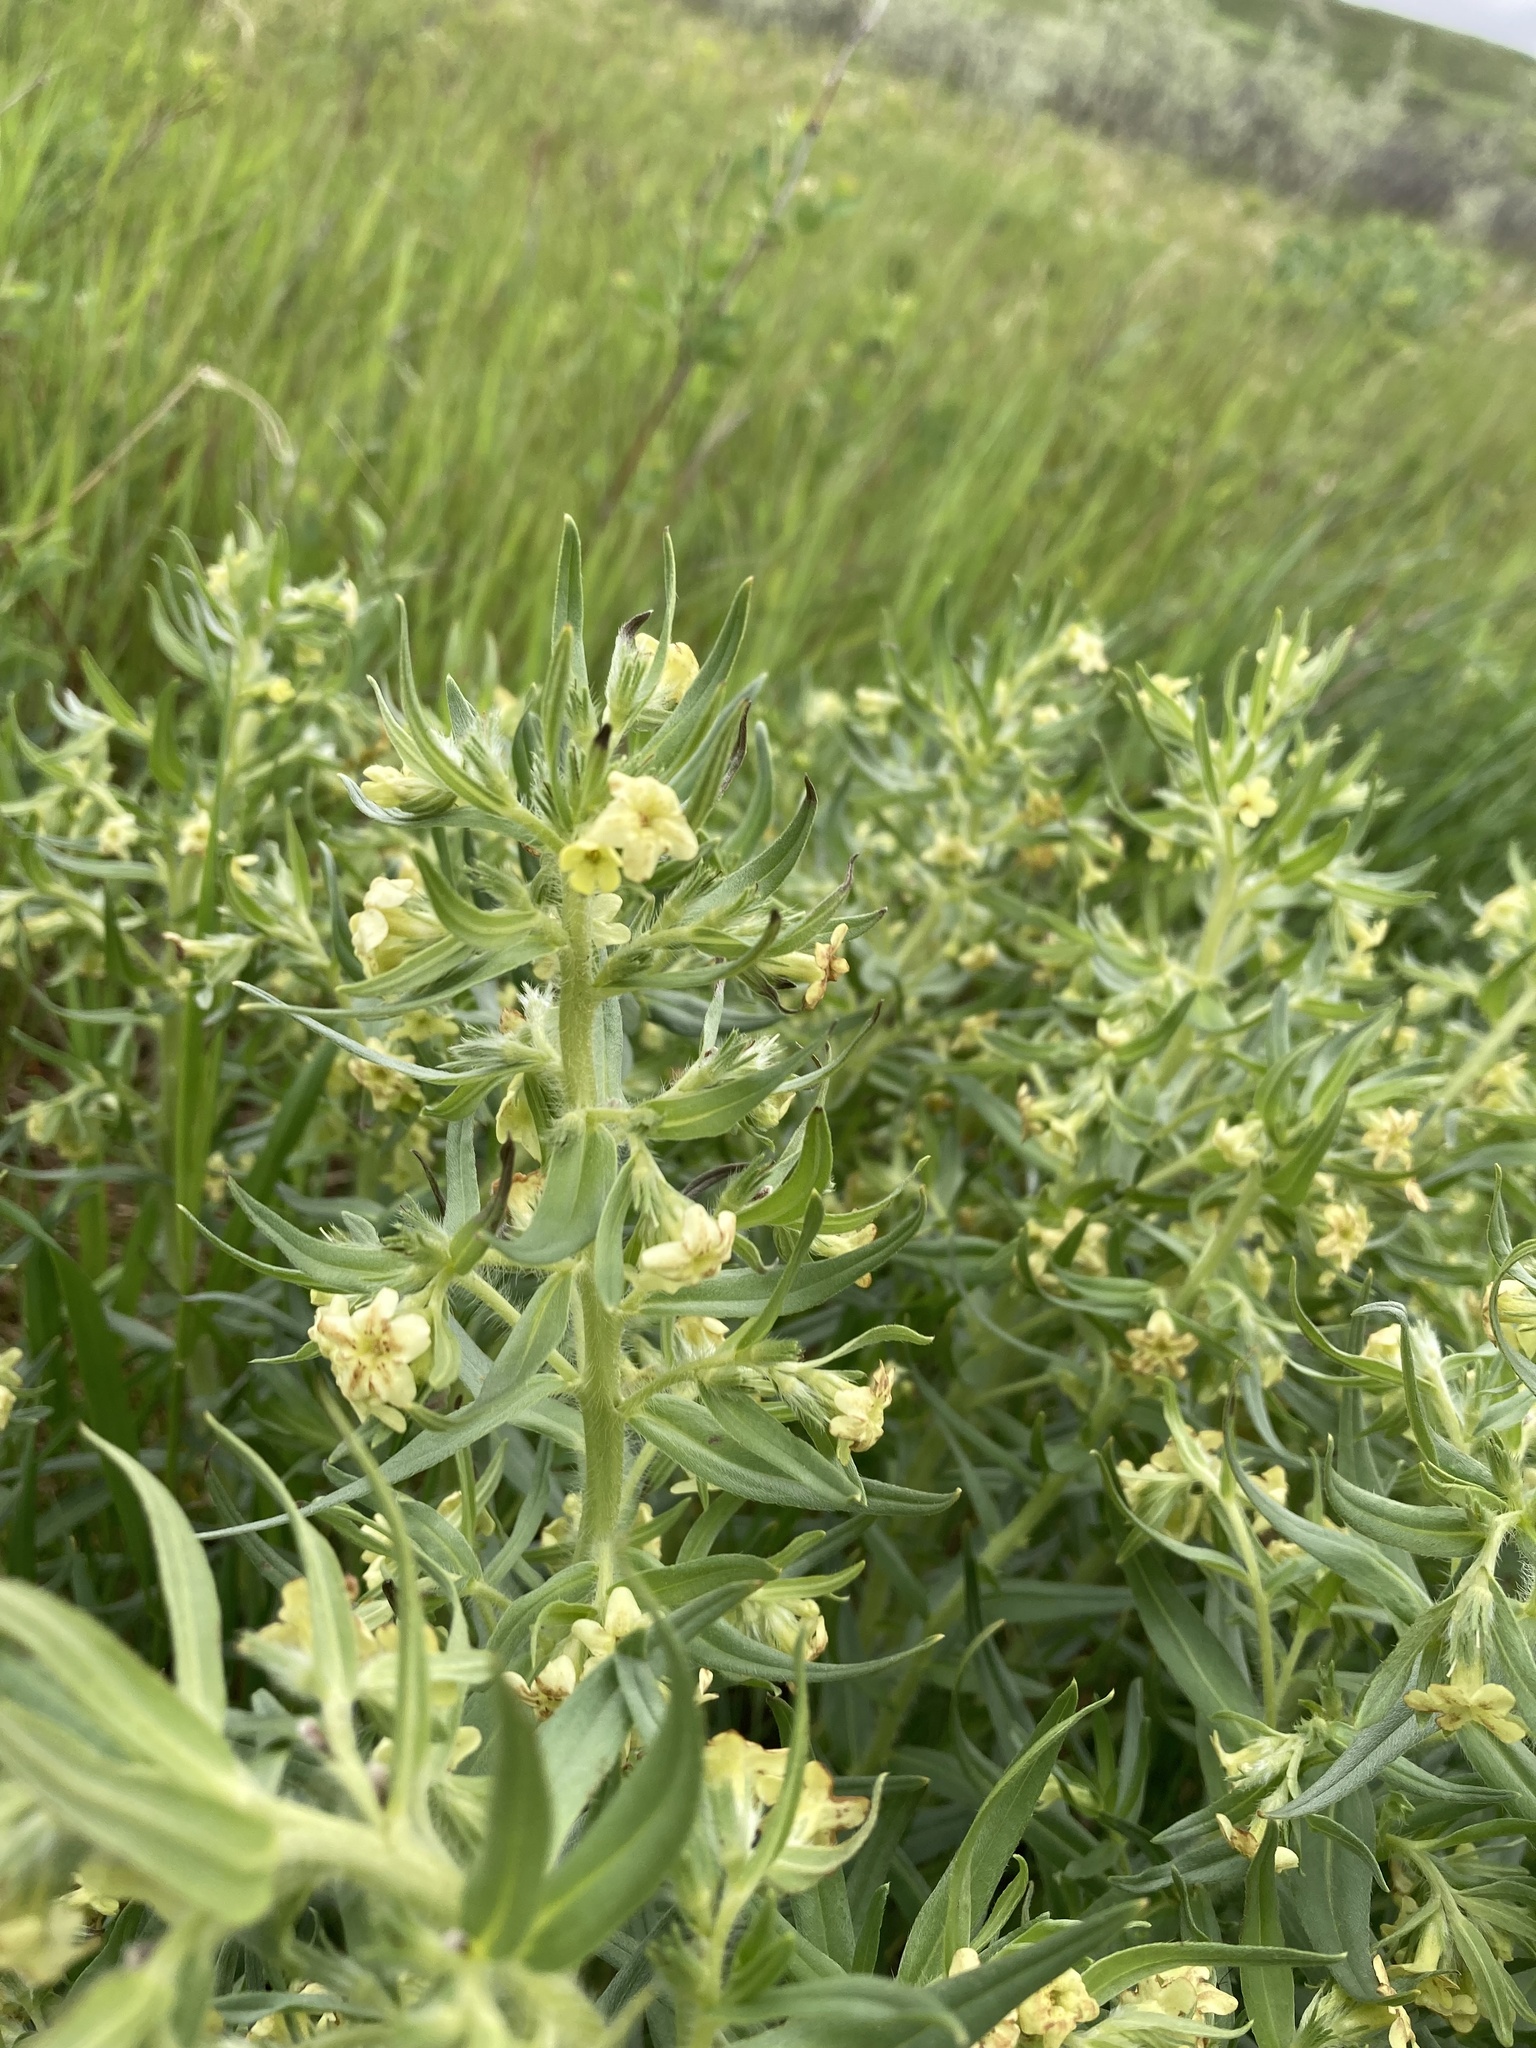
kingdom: Plantae
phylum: Tracheophyta
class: Magnoliopsida
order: Boraginales
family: Boraginaceae
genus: Lithospermum
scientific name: Lithospermum ruderale
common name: Western gromwell
